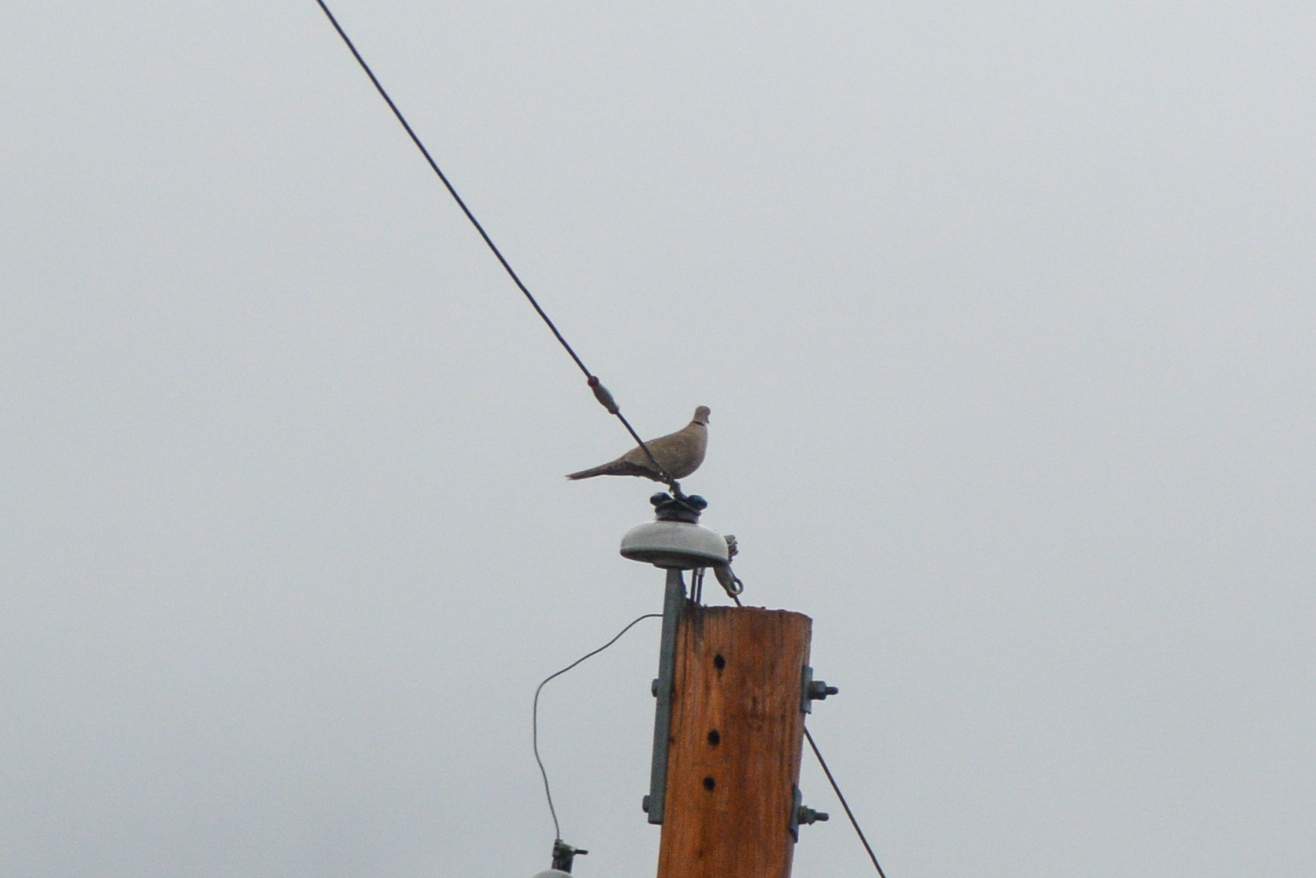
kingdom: Animalia
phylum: Chordata
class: Aves
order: Columbiformes
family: Columbidae
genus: Streptopelia
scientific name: Streptopelia decaocto
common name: Eurasian collared dove
